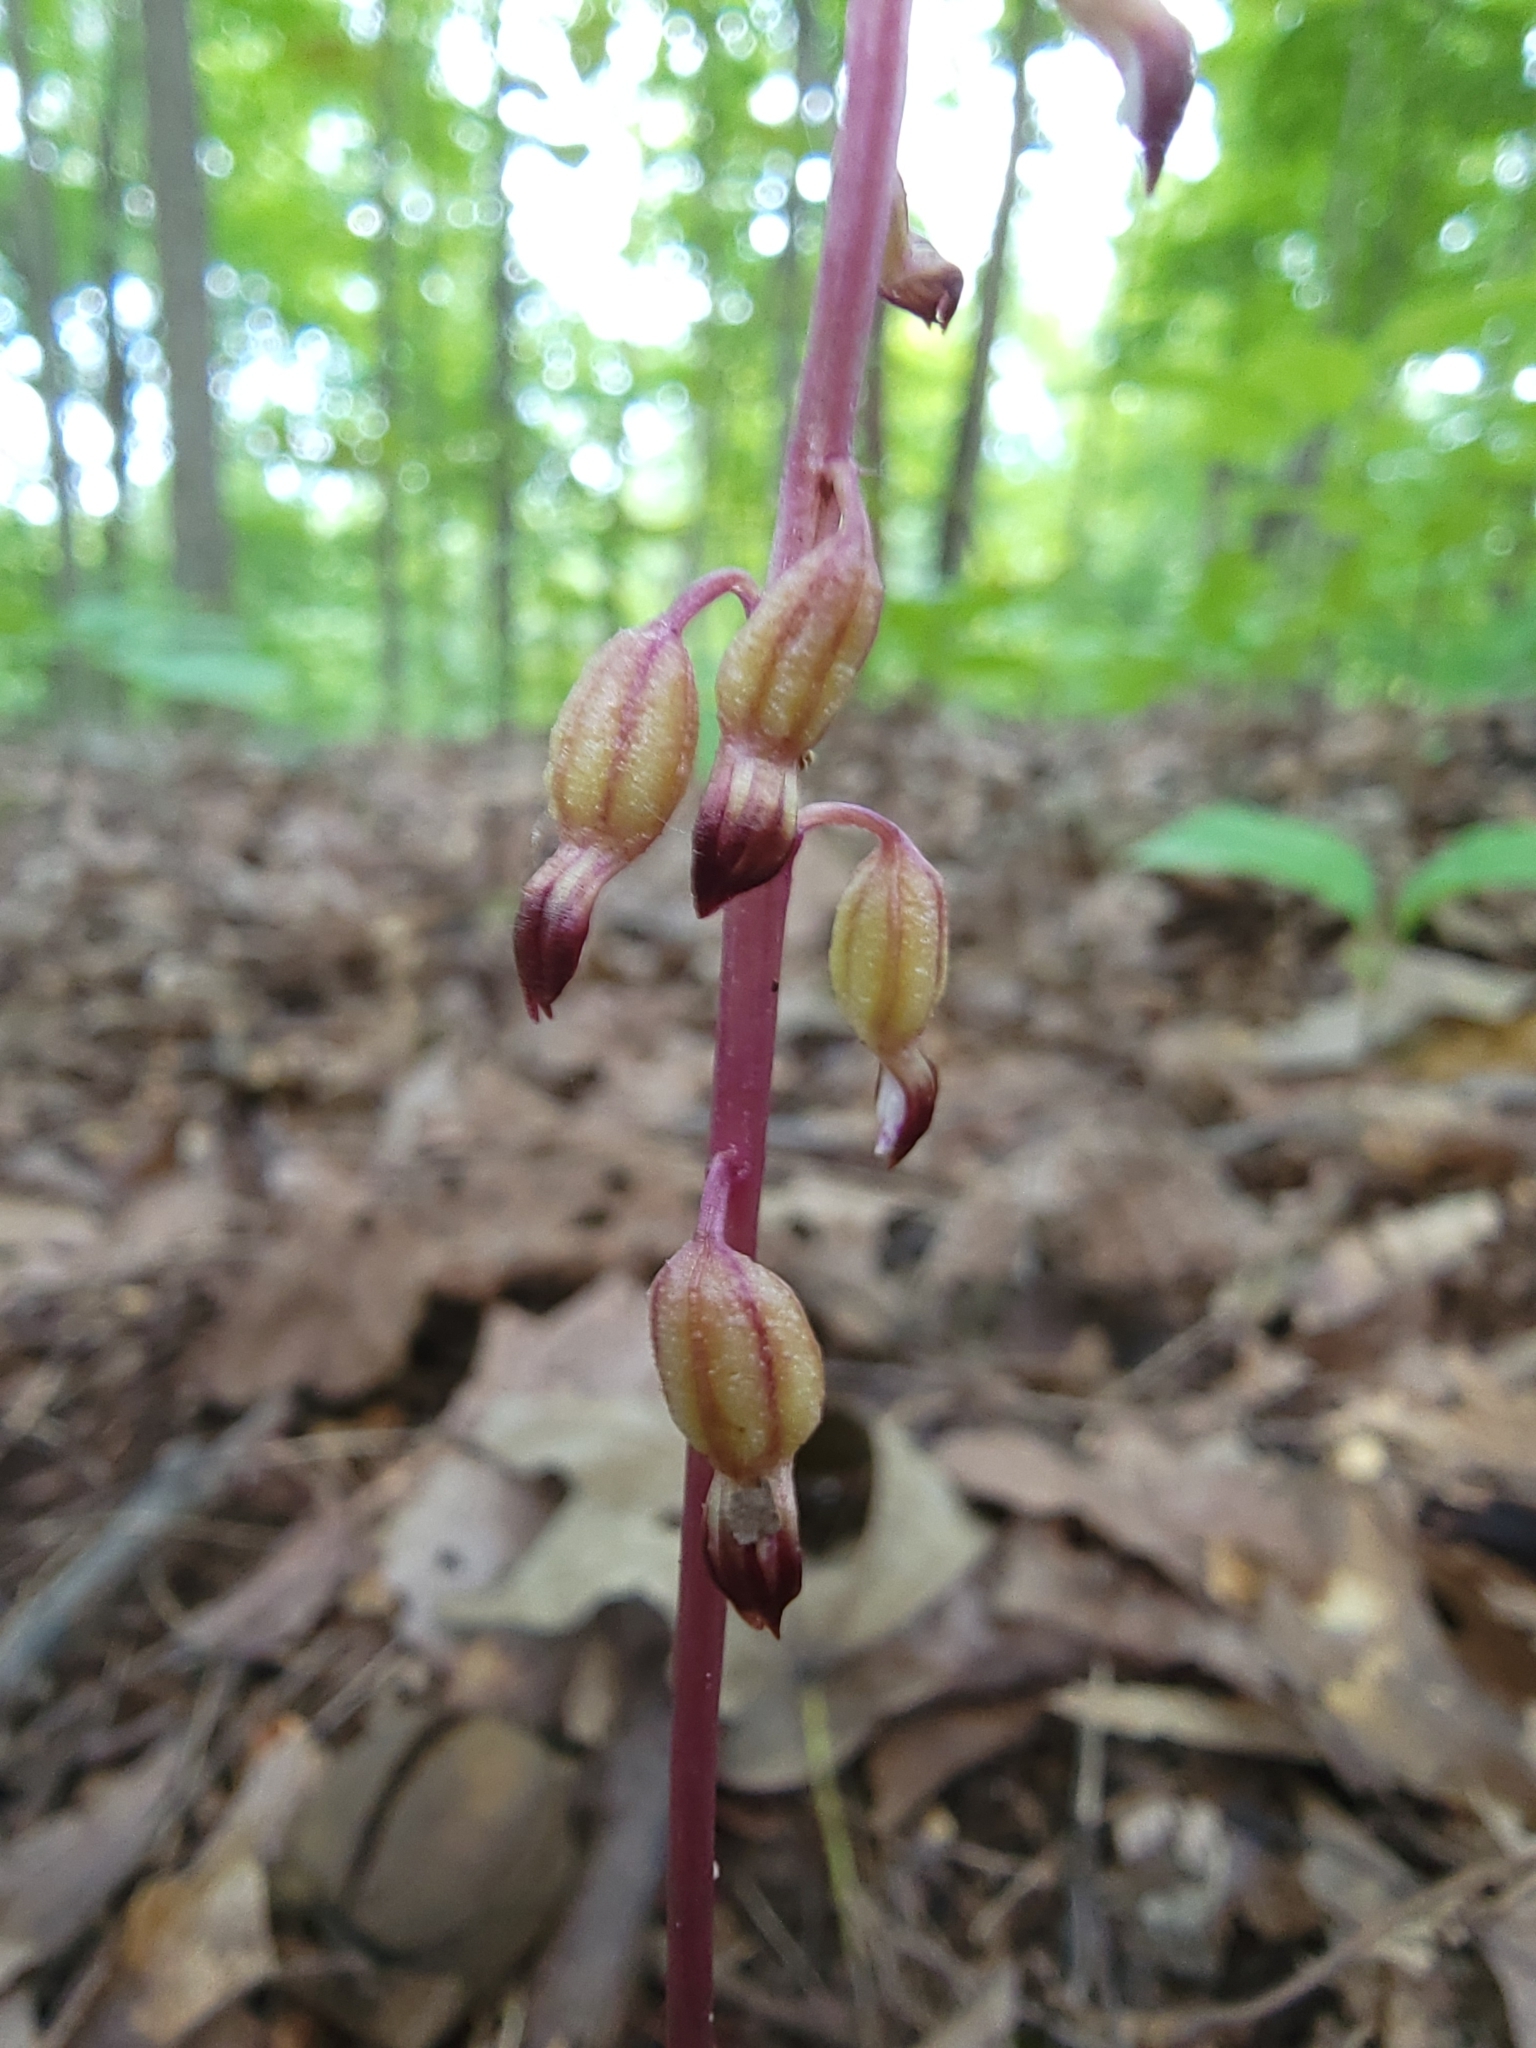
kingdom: Plantae
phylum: Tracheophyta
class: Liliopsida
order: Asparagales
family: Orchidaceae
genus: Corallorhiza
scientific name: Corallorhiza odontorhiza
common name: Autumn coralroot
